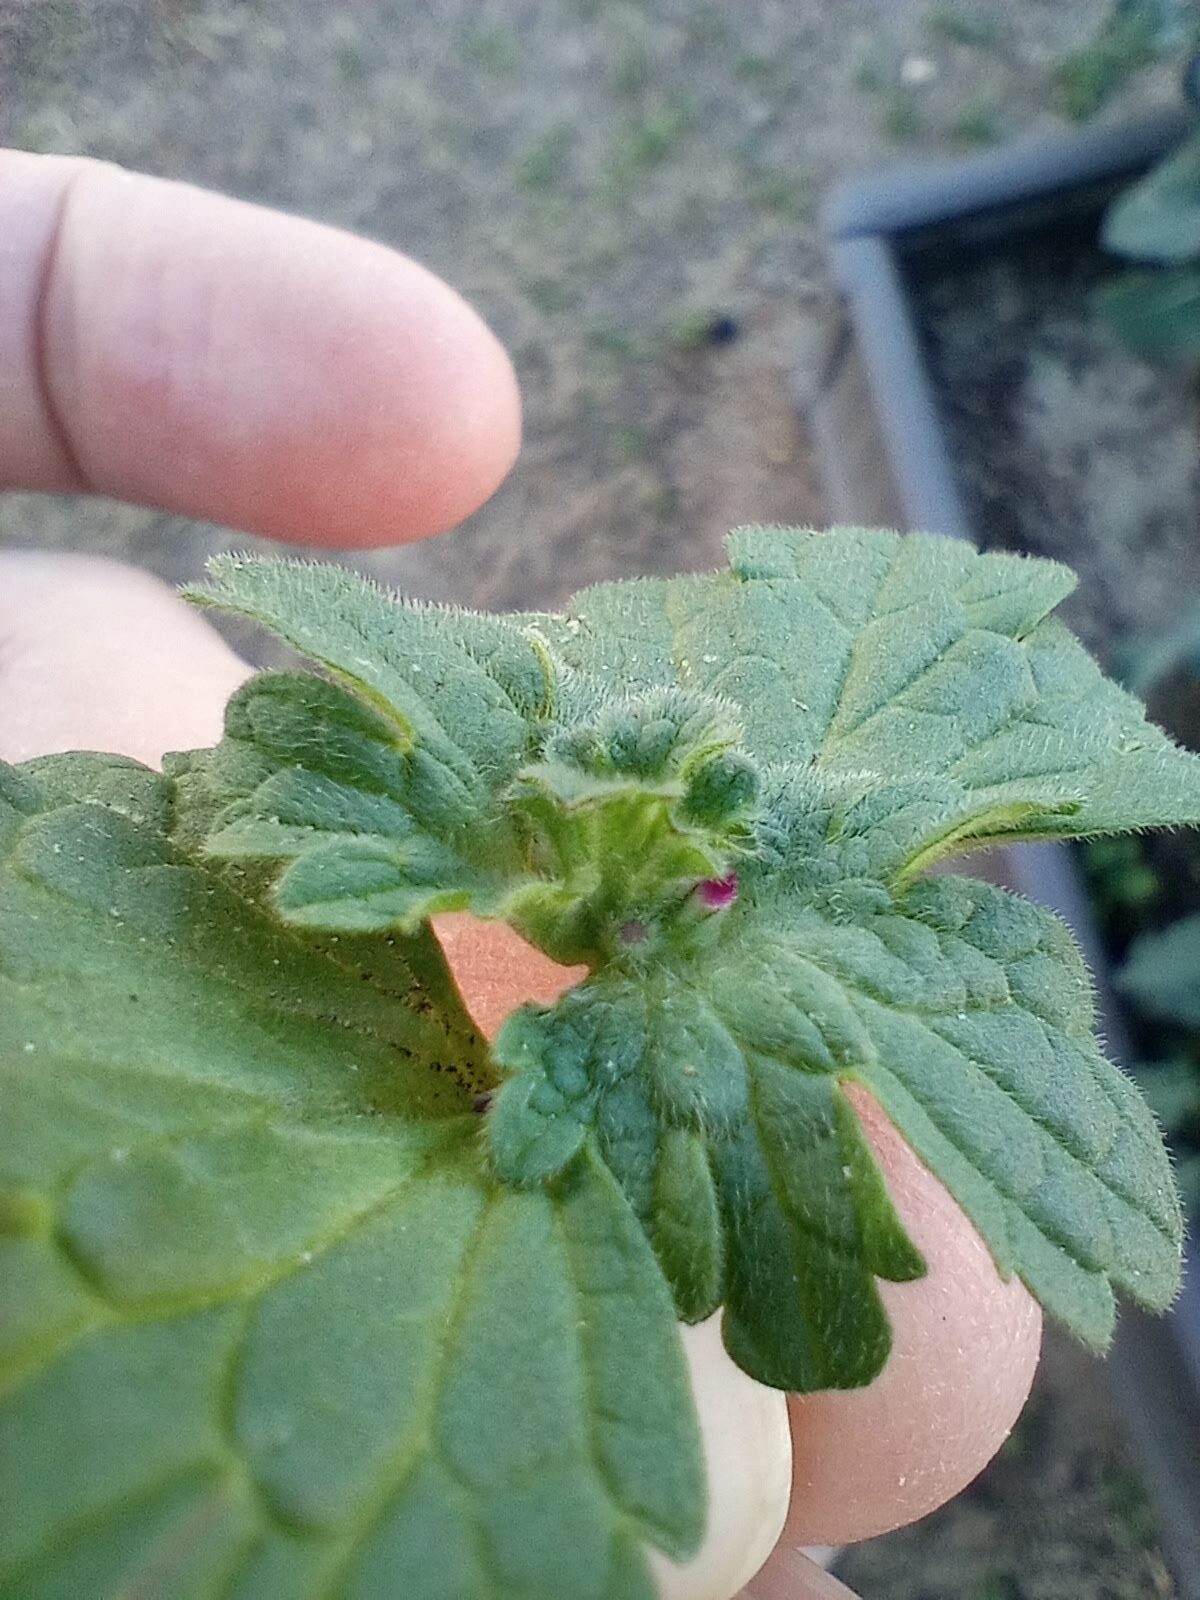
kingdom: Plantae
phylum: Tracheophyta
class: Magnoliopsida
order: Lamiales
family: Lamiaceae
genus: Lamium
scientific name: Lamium amplexicaule
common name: Henbit dead-nettle
